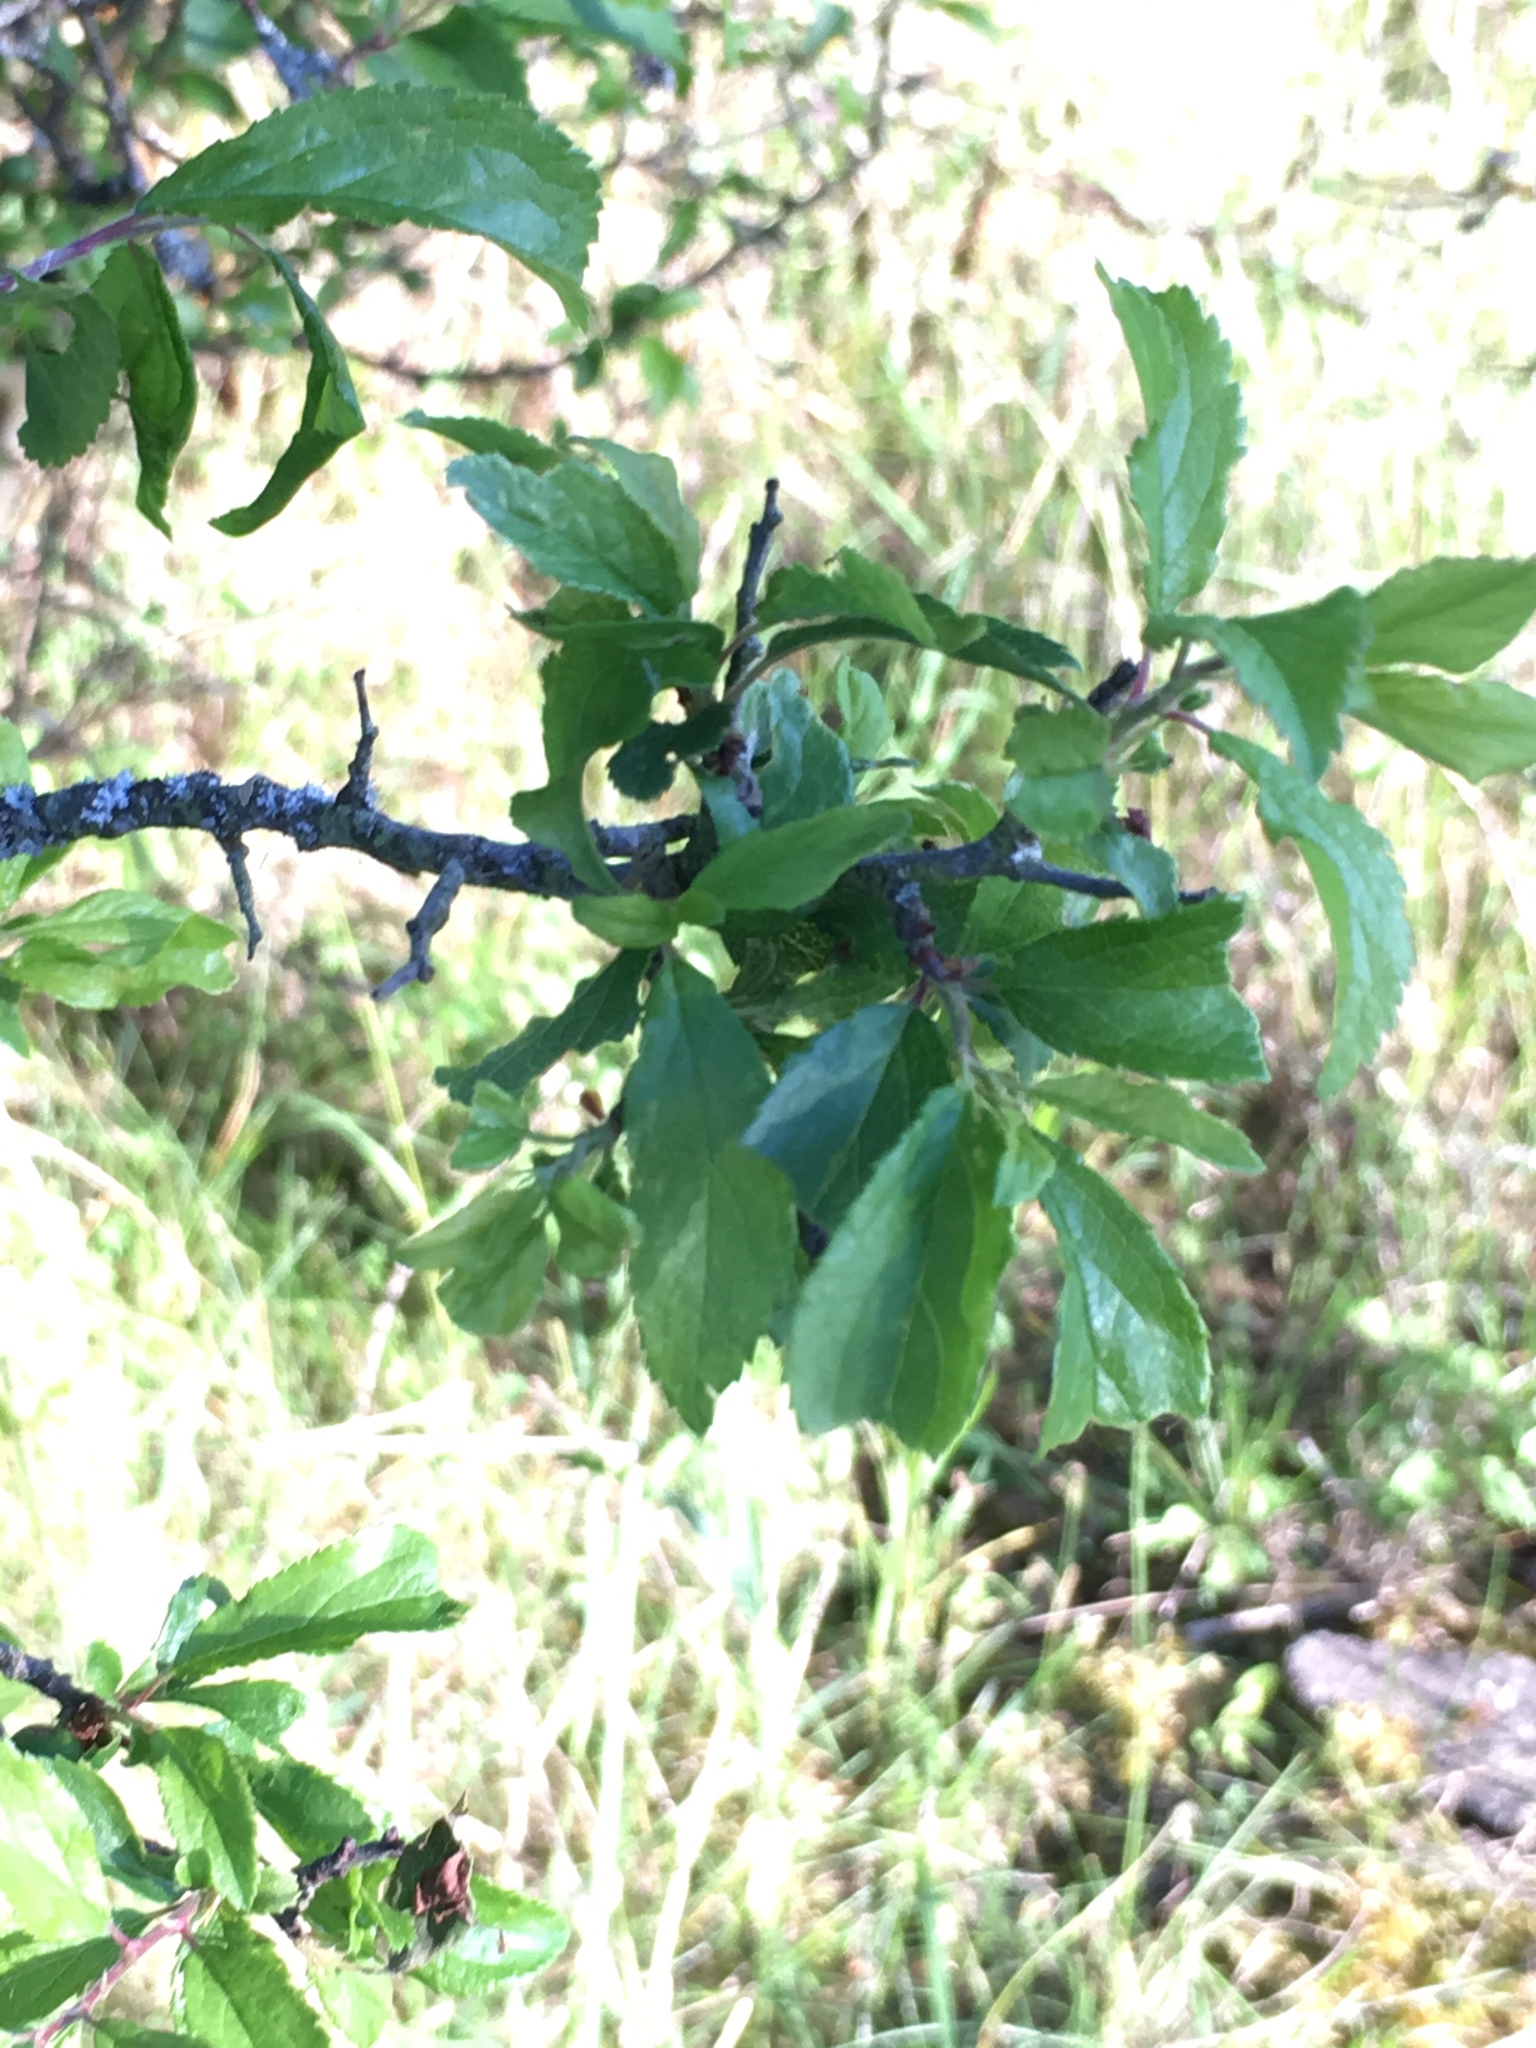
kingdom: Plantae
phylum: Tracheophyta
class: Magnoliopsida
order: Rosales
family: Rosaceae
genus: Prunus
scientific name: Prunus spinosa
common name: Blackthorn
